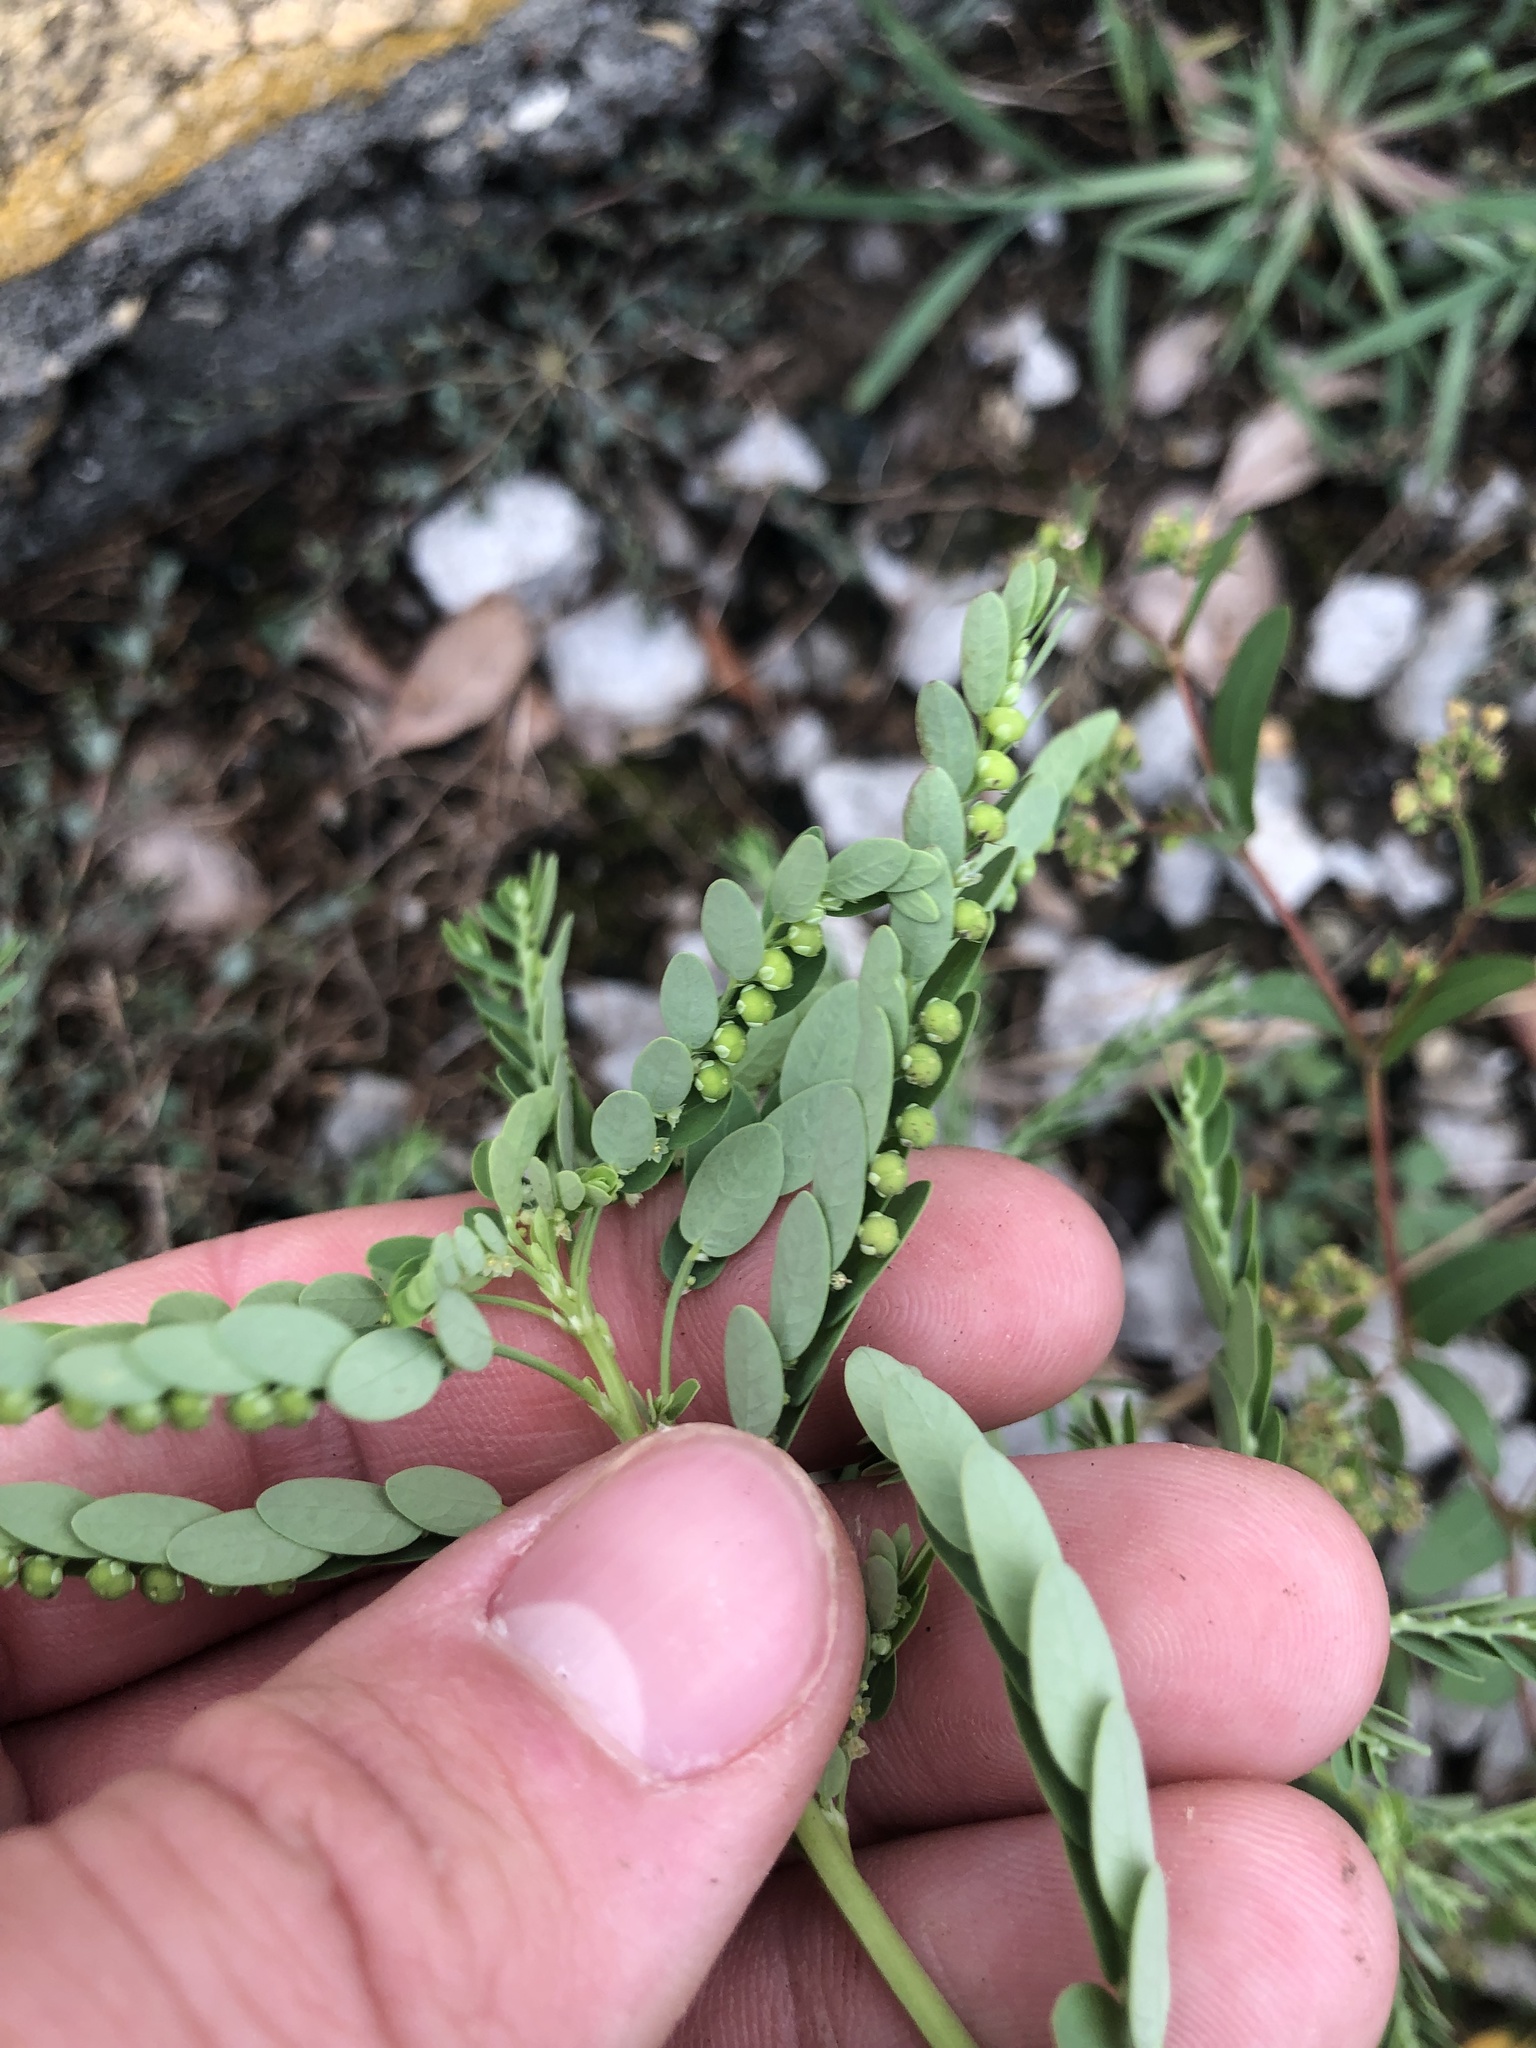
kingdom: Plantae
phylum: Tracheophyta
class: Magnoliopsida
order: Malpighiales
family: Phyllanthaceae
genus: Phyllanthus
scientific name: Phyllanthus fraternus
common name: Gulf leaf-flower
